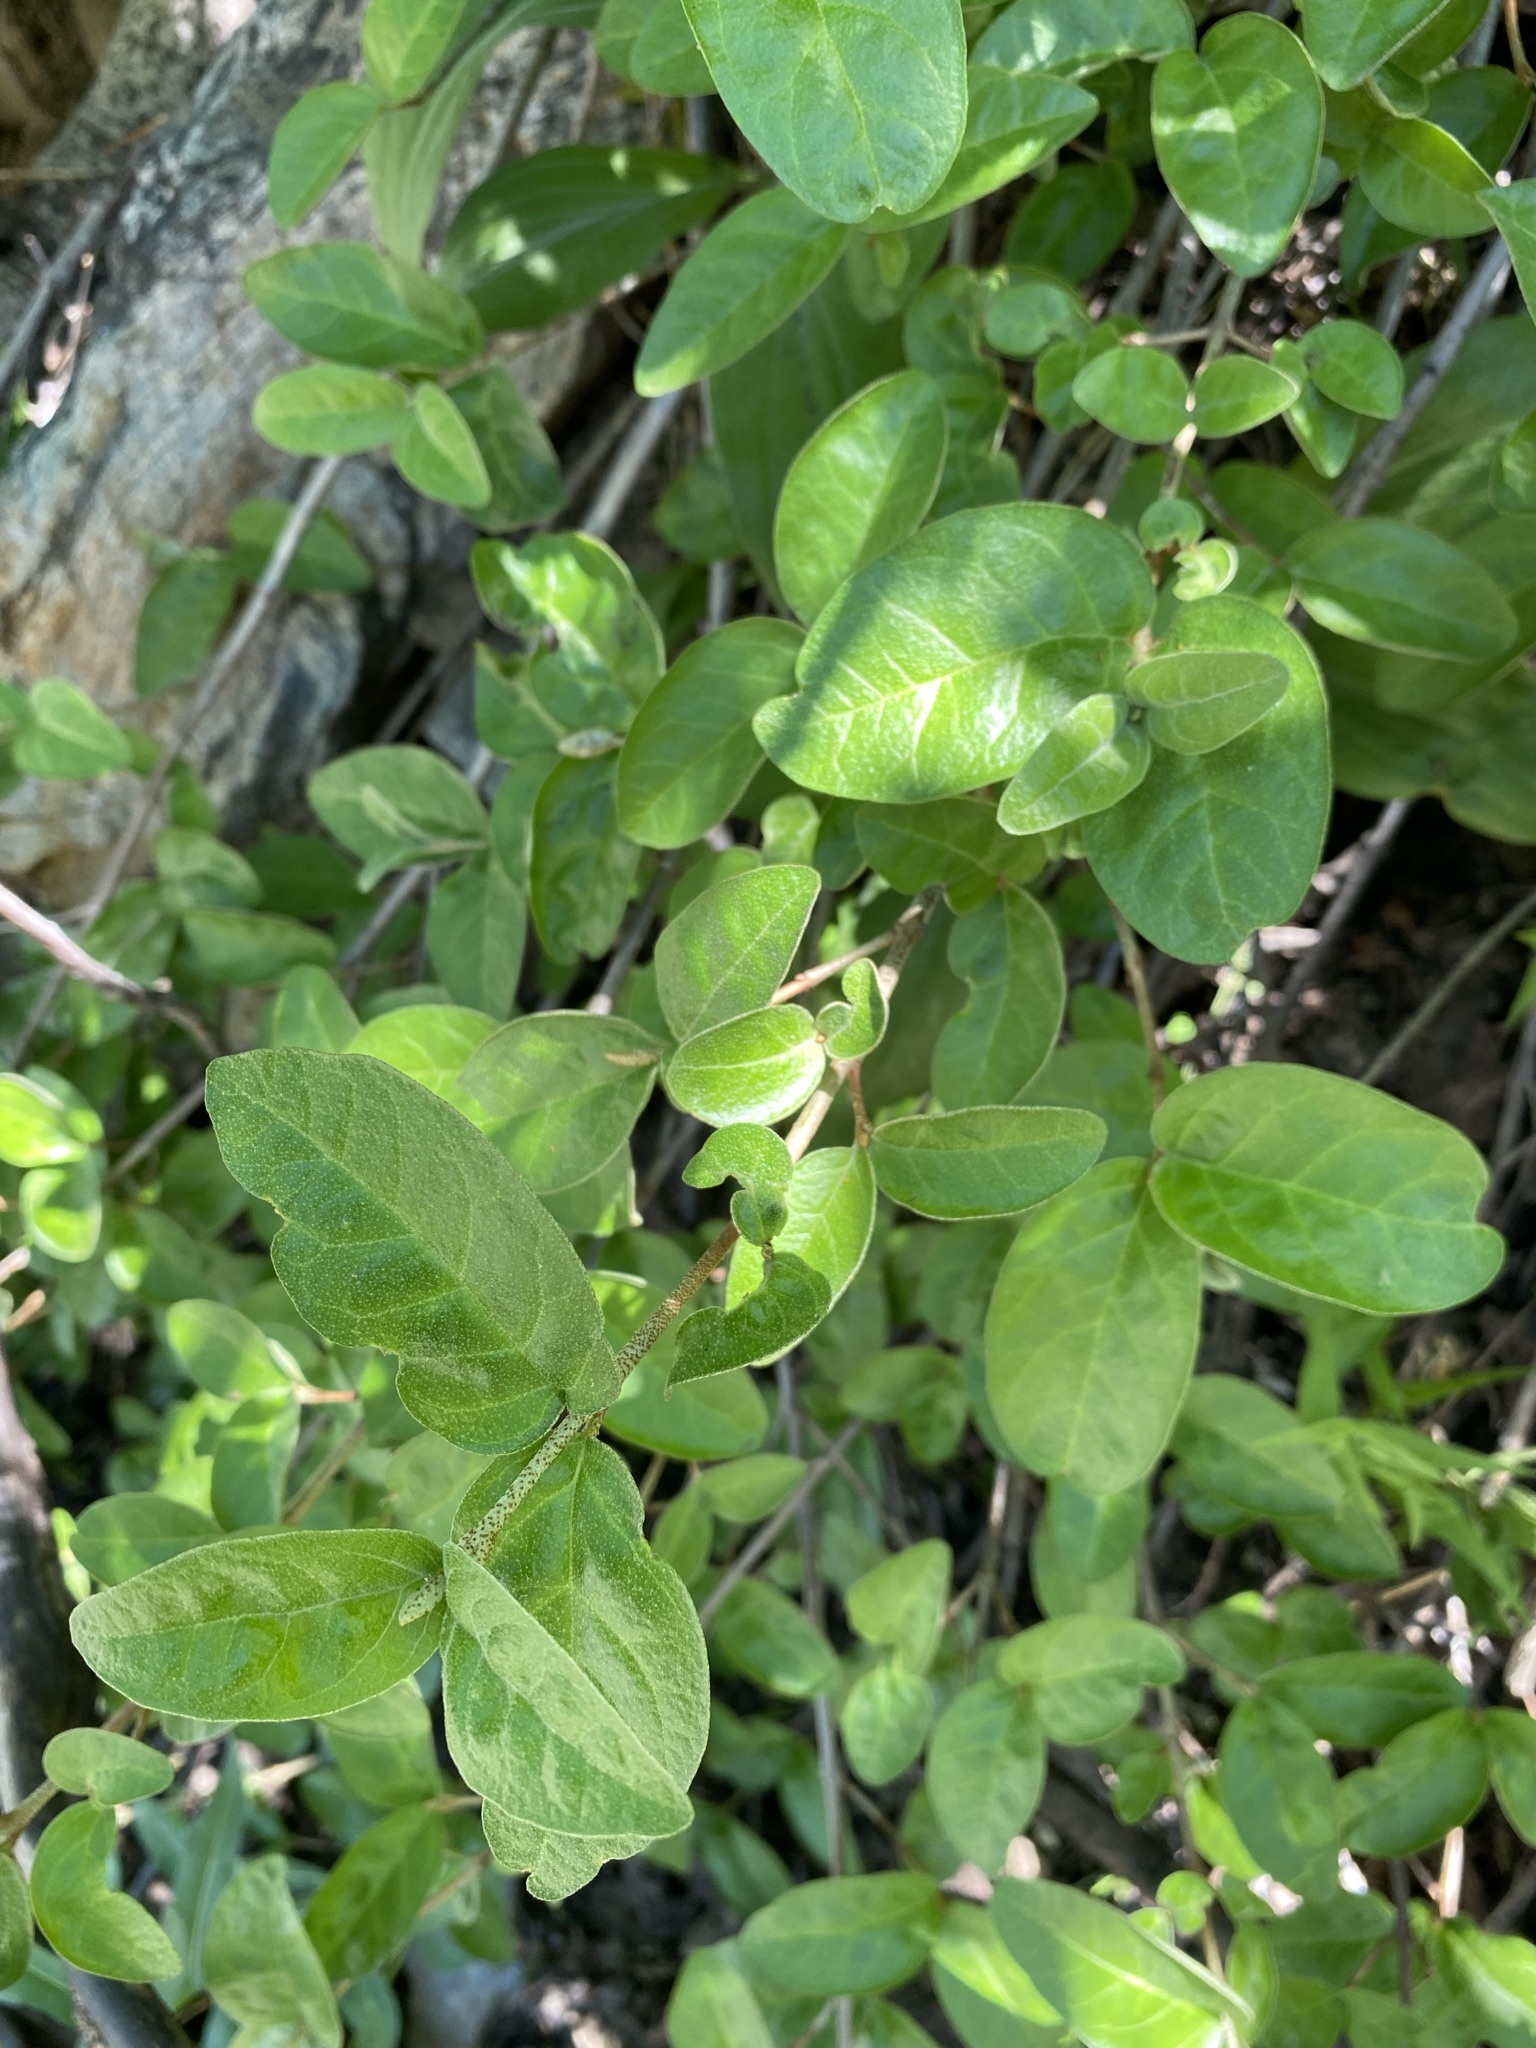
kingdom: Plantae
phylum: Tracheophyta
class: Magnoliopsida
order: Rosales
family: Elaeagnaceae
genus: Shepherdia
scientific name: Shepherdia canadensis
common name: Soapberry
